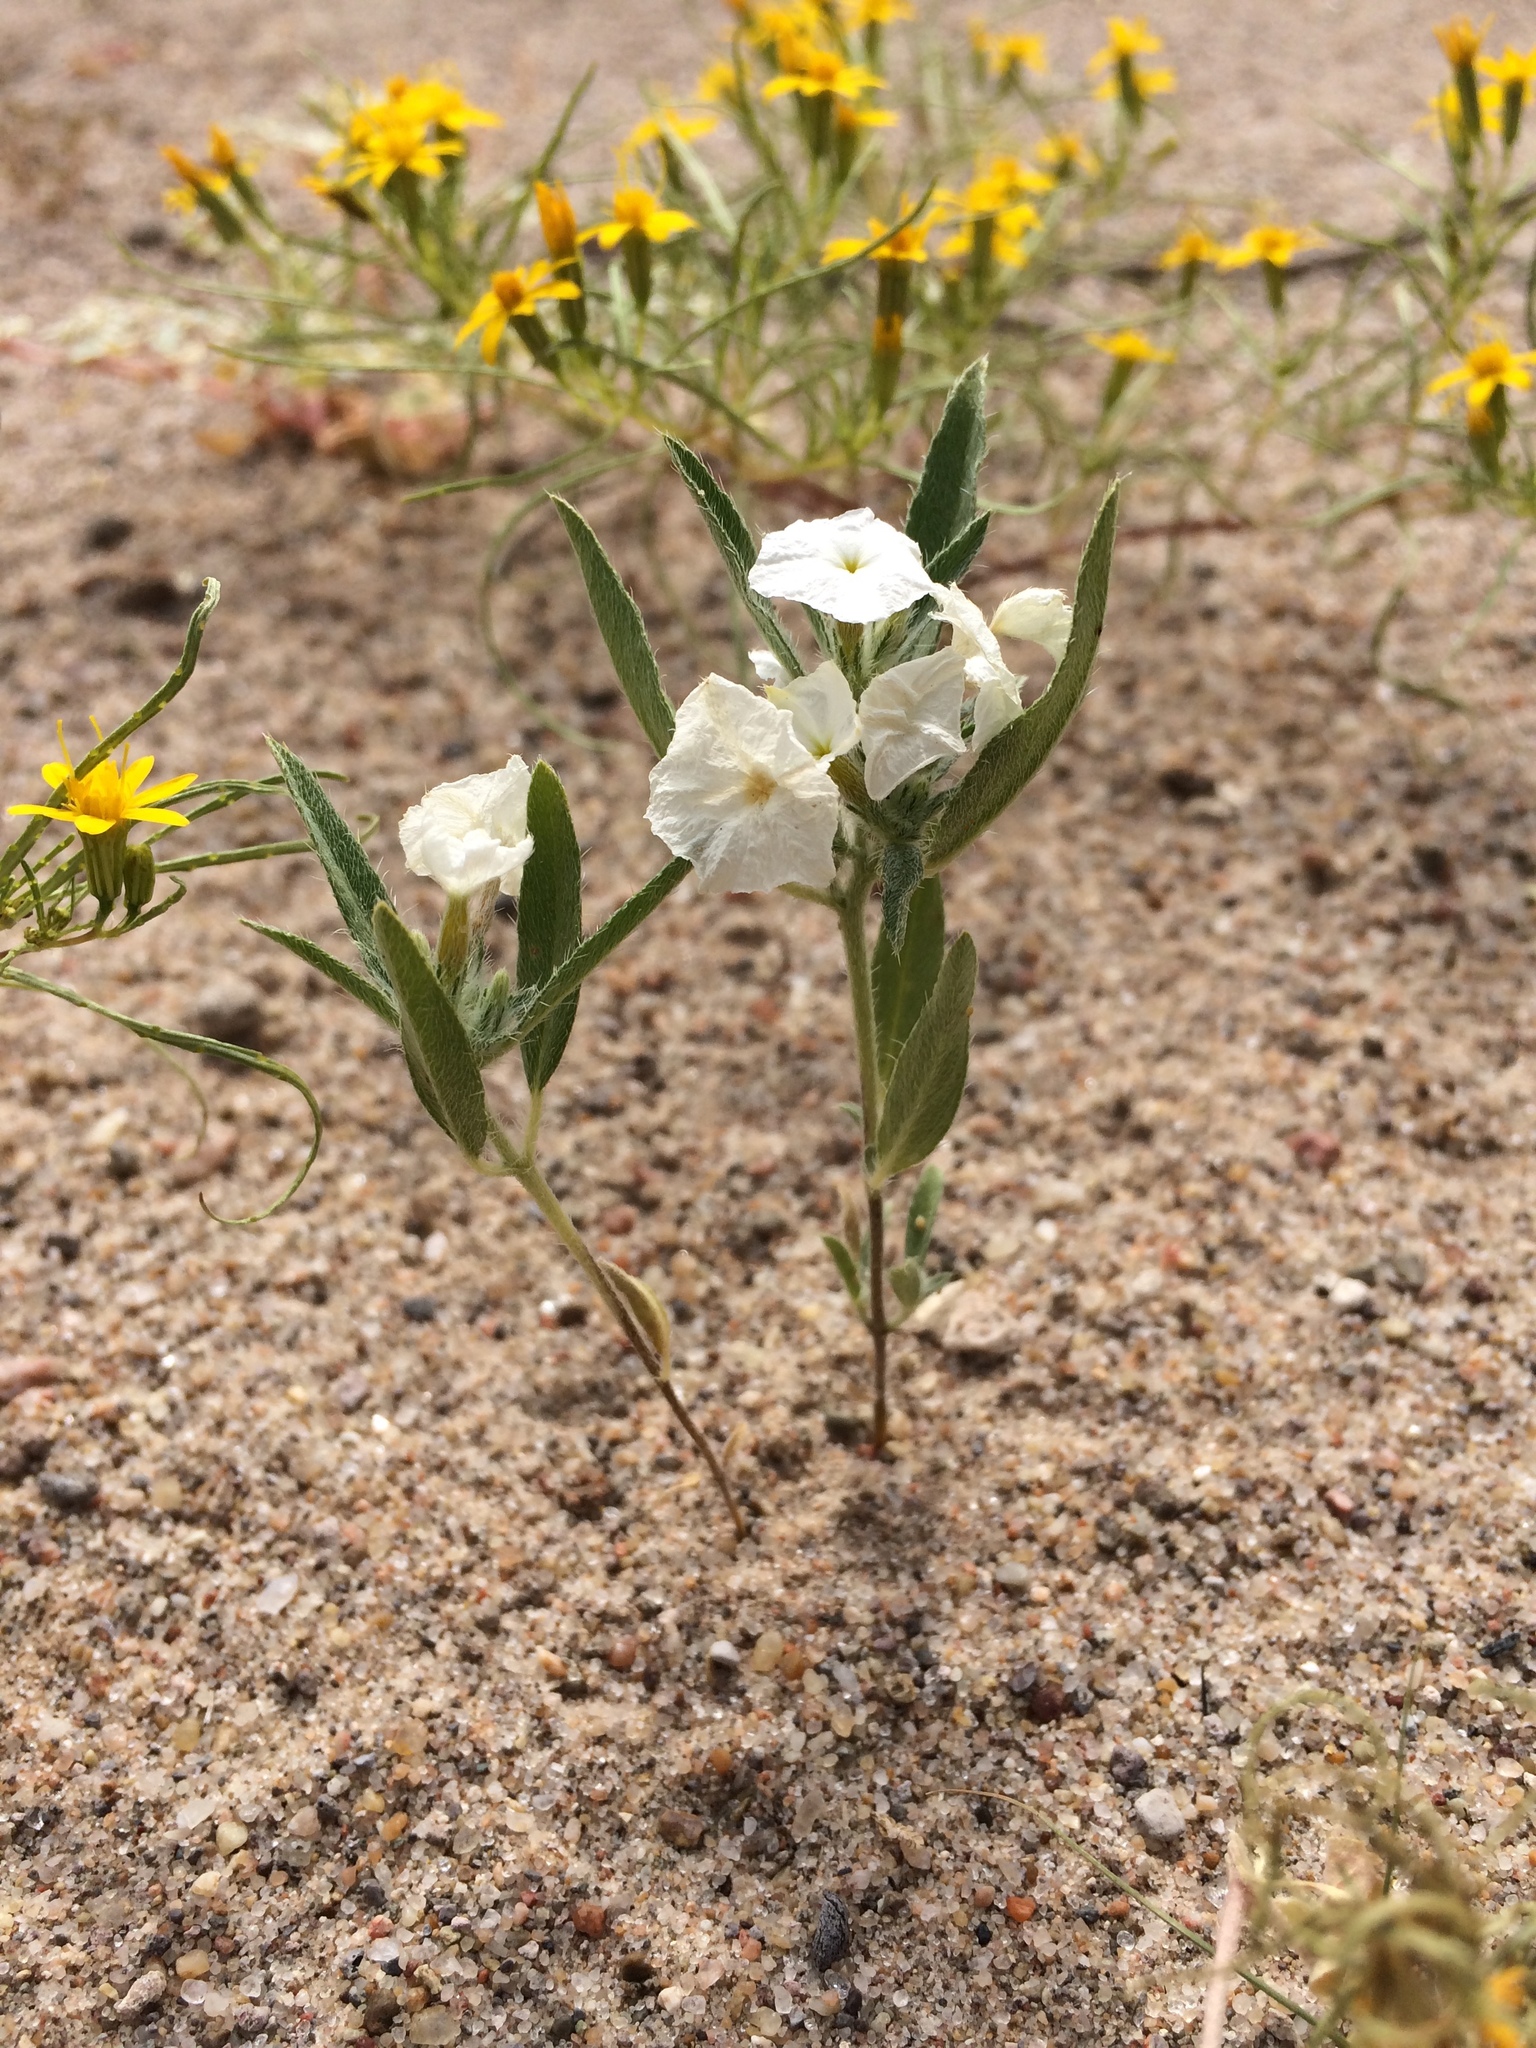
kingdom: Plantae
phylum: Tracheophyta
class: Magnoliopsida
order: Boraginales
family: Heliotropiaceae
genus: Euploca
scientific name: Euploca convolvulacea
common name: Bindweed heliotrope
